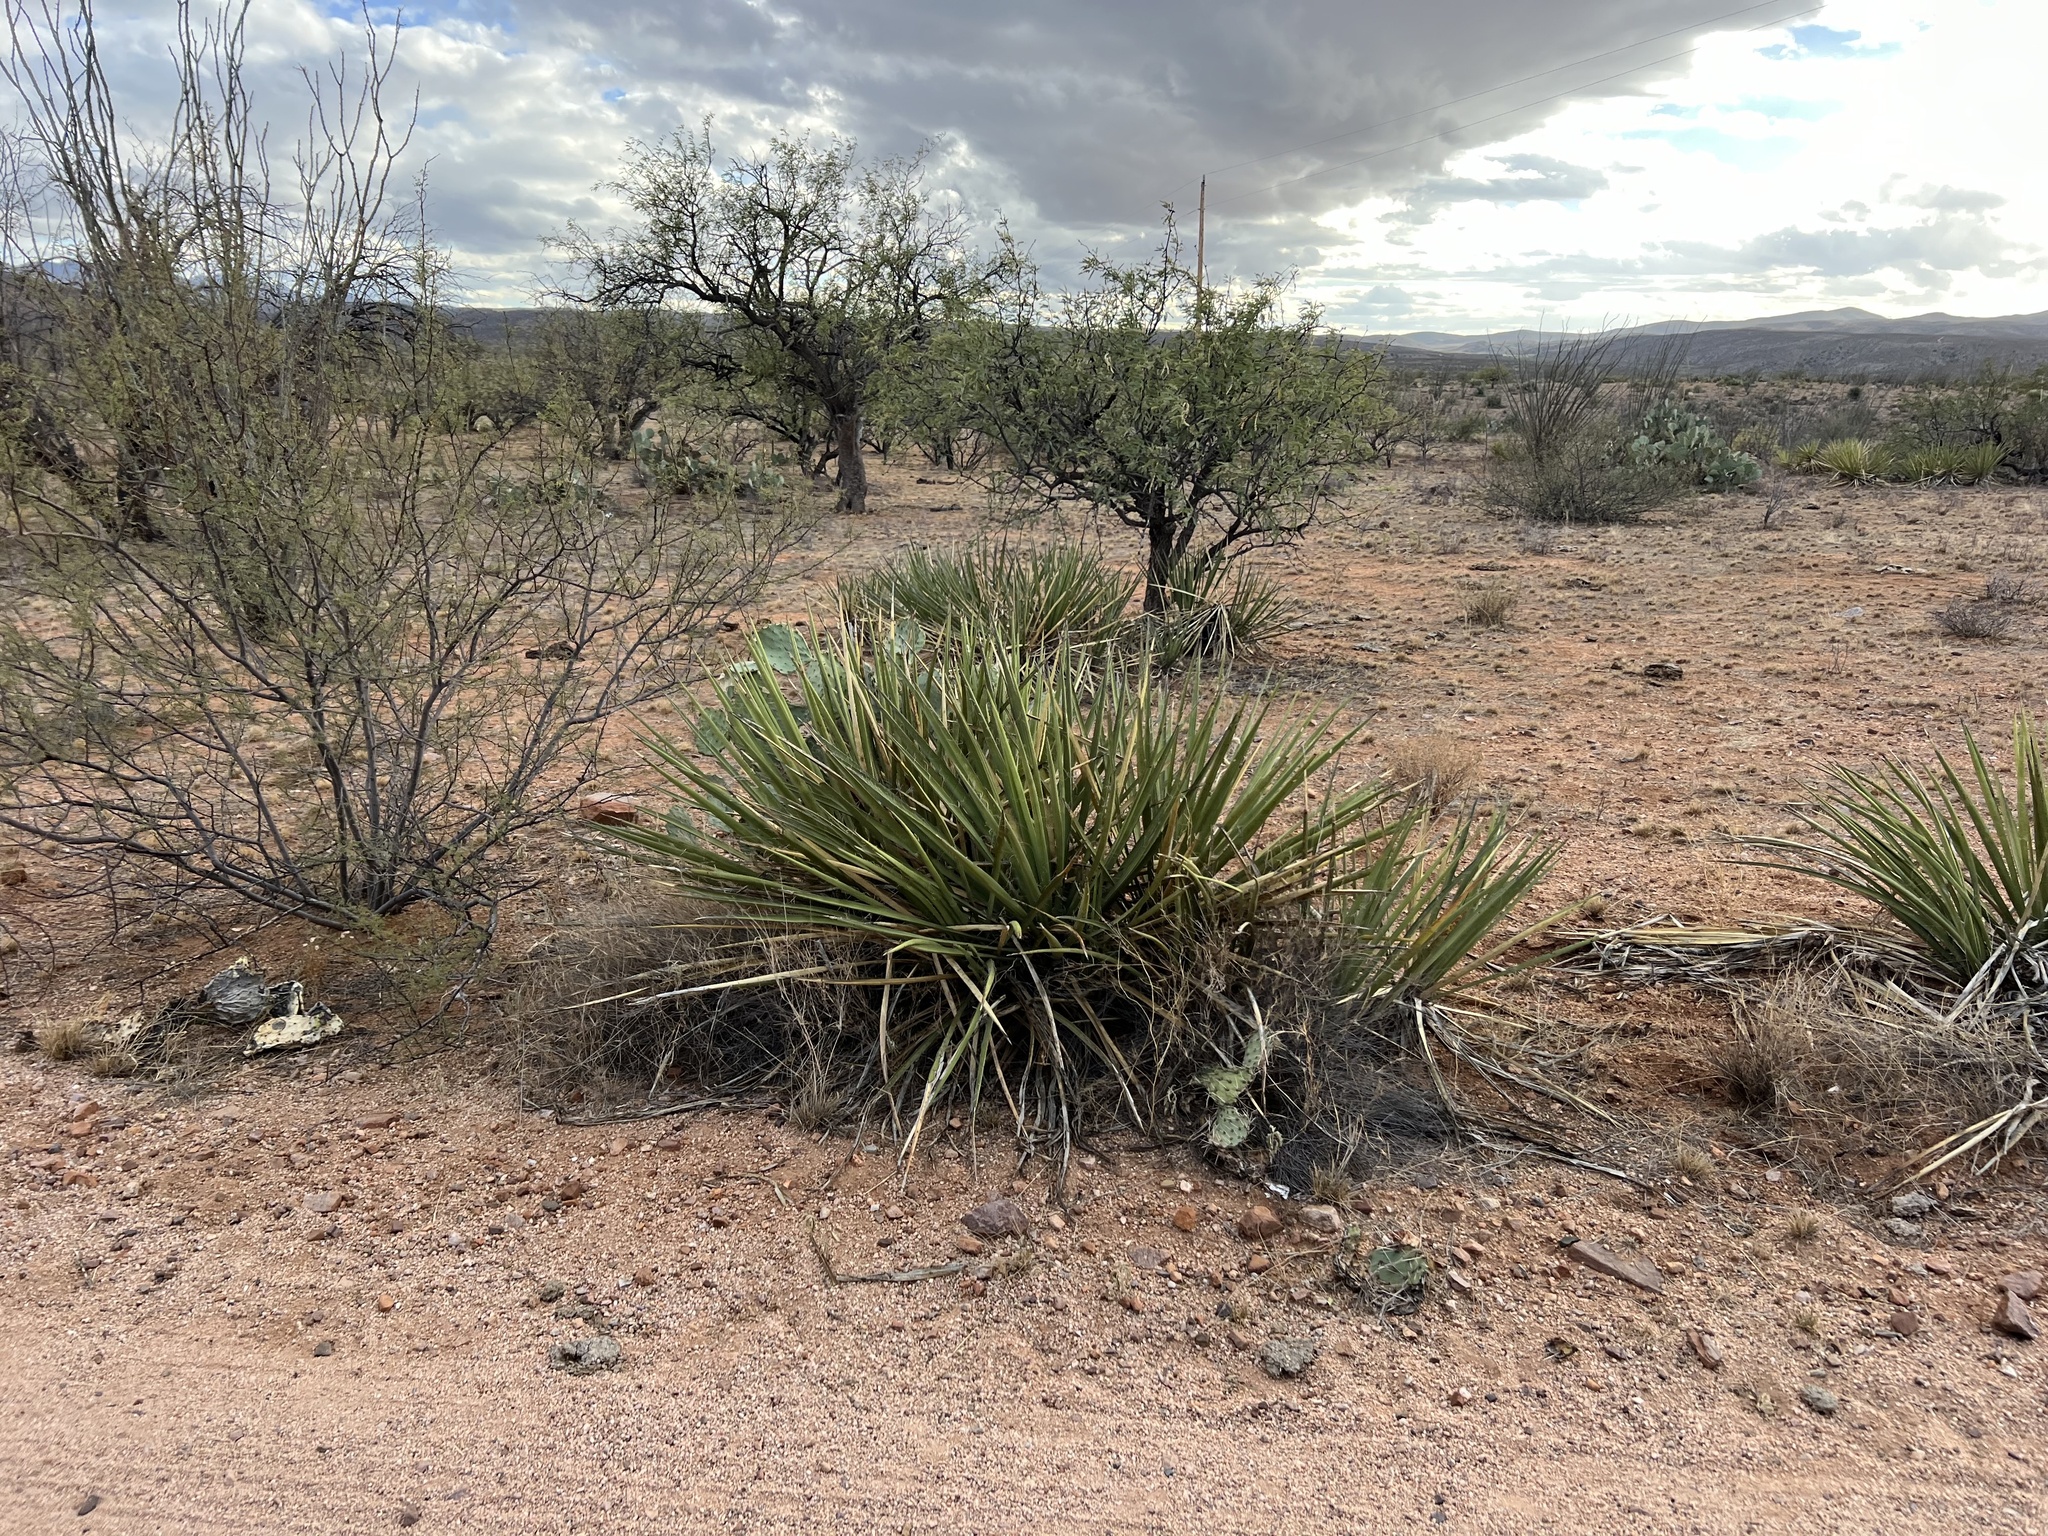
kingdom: Plantae
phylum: Tracheophyta
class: Liliopsida
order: Asparagales
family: Asparagaceae
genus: Yucca
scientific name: Yucca baccata
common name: Banana yucca
